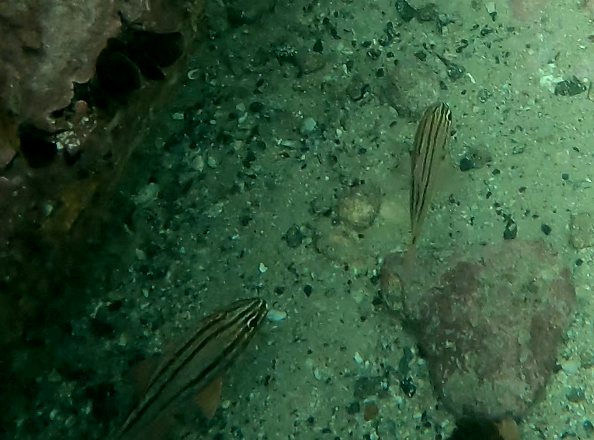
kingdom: Animalia
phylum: Chordata
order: Perciformes
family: Apogonidae
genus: Ostorhinchus
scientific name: Ostorhinchus limenus
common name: Four-banded soldierfish
